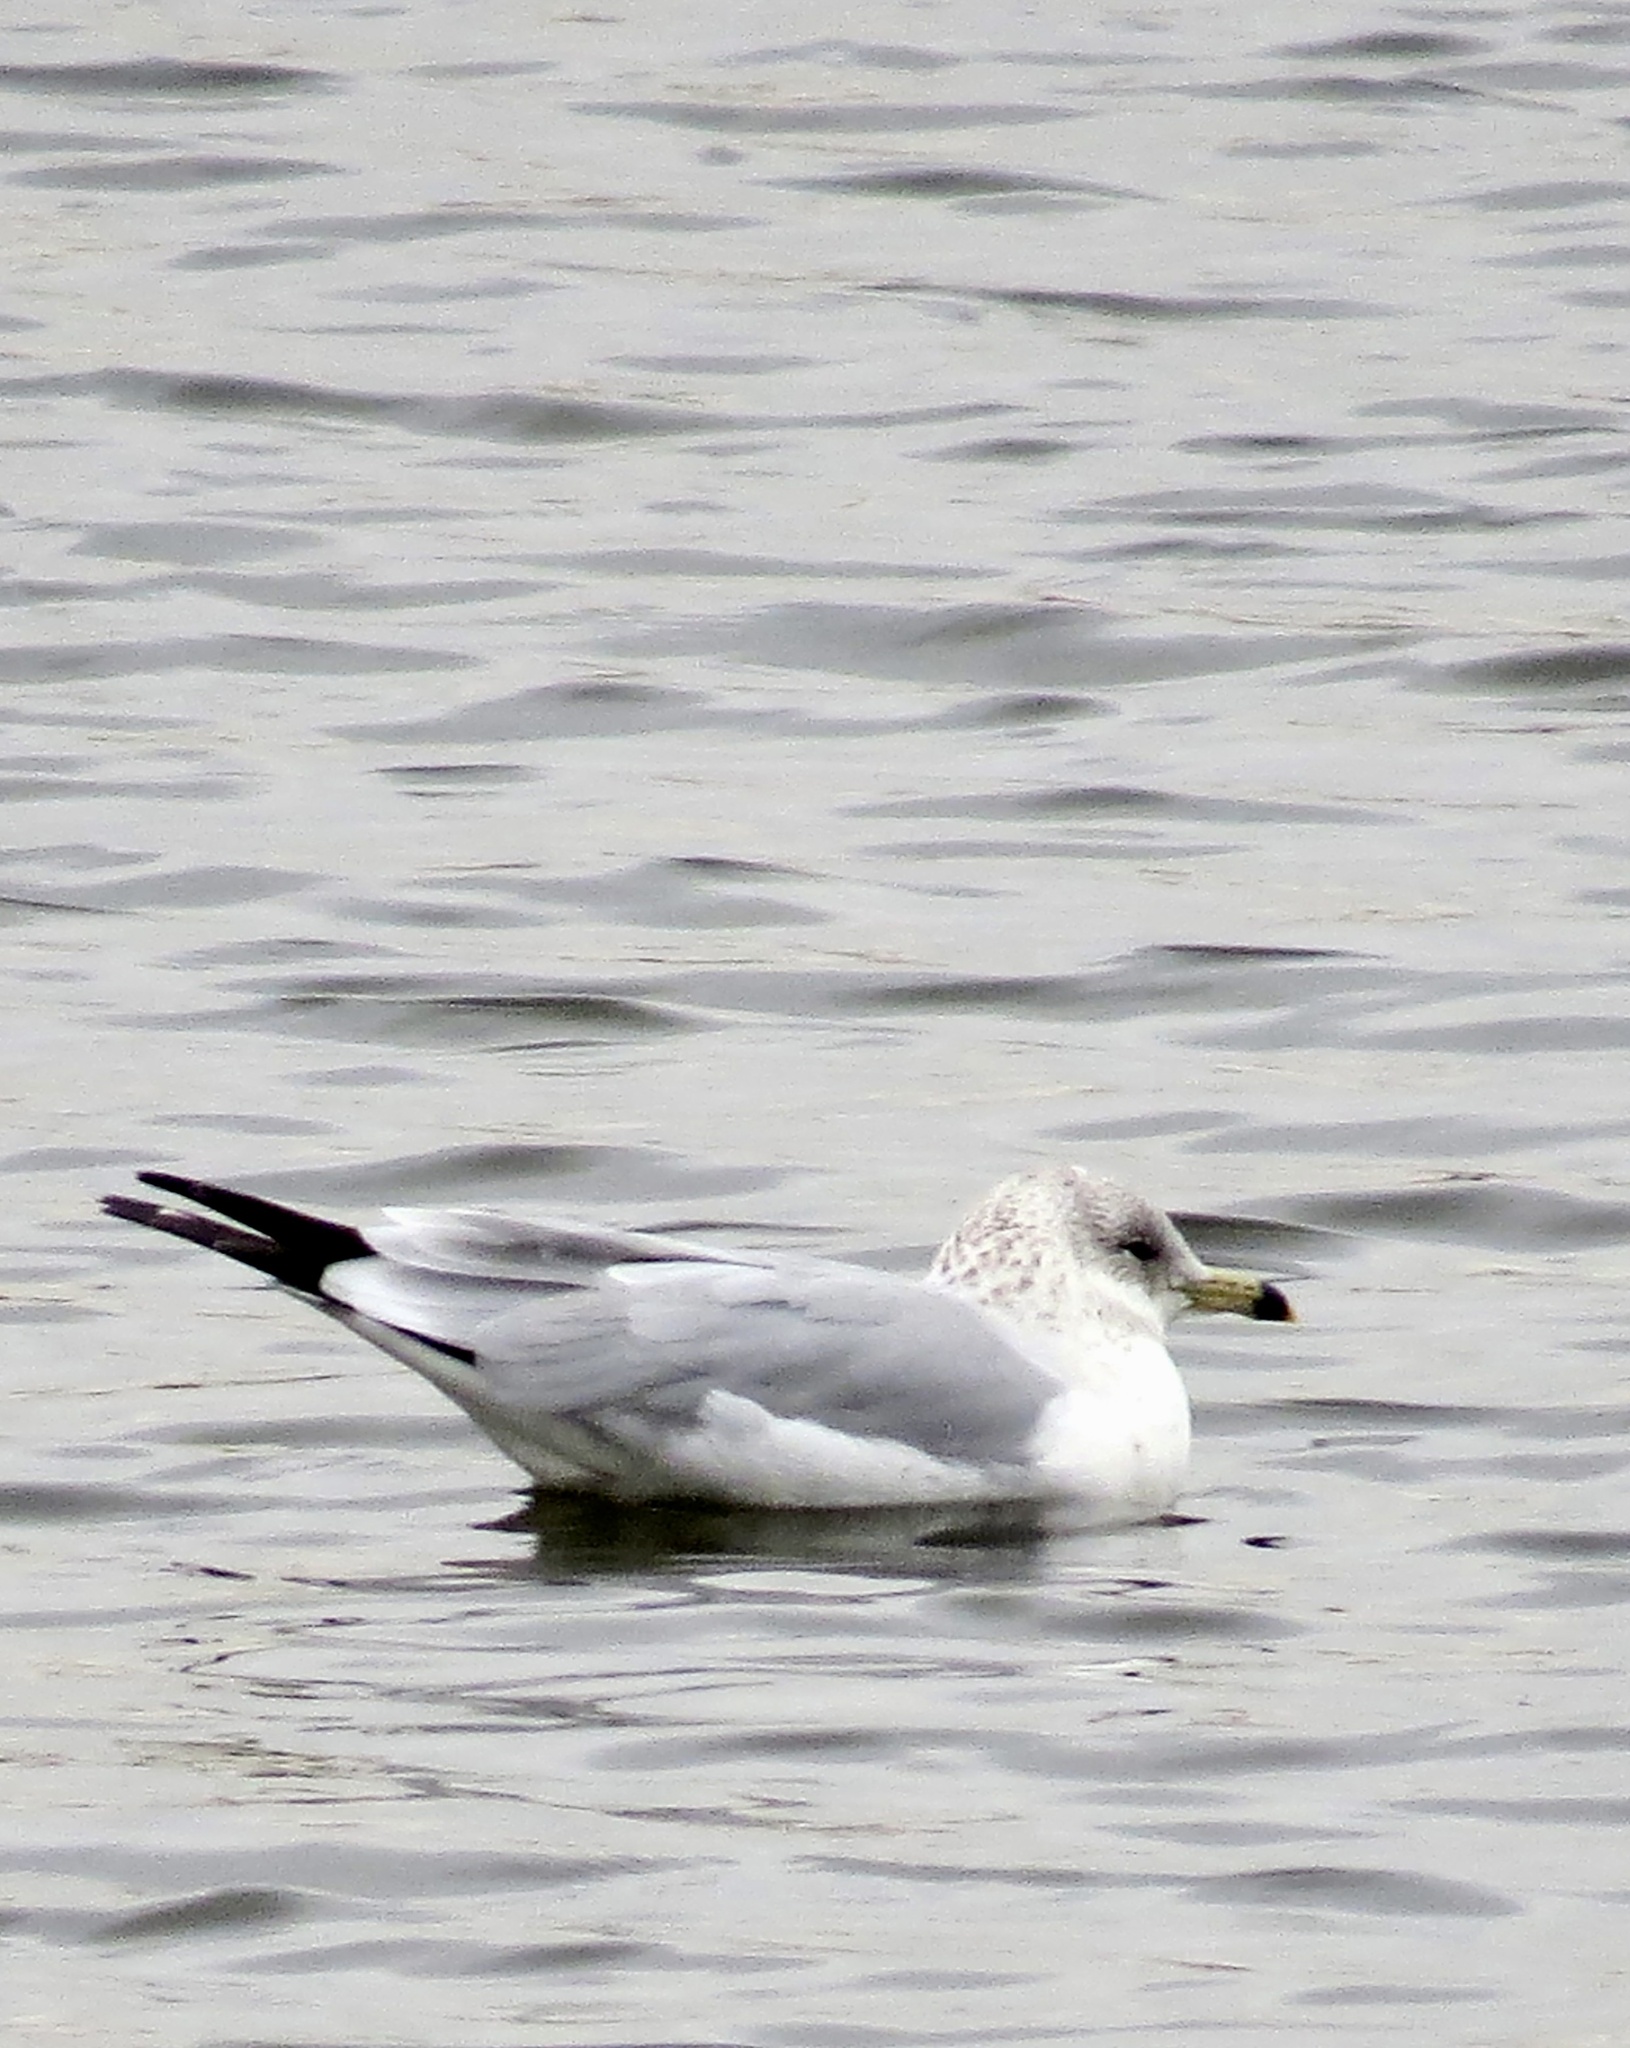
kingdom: Animalia
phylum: Chordata
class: Aves
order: Charadriiformes
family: Laridae
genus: Larus
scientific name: Larus delawarensis
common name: Ring-billed gull
